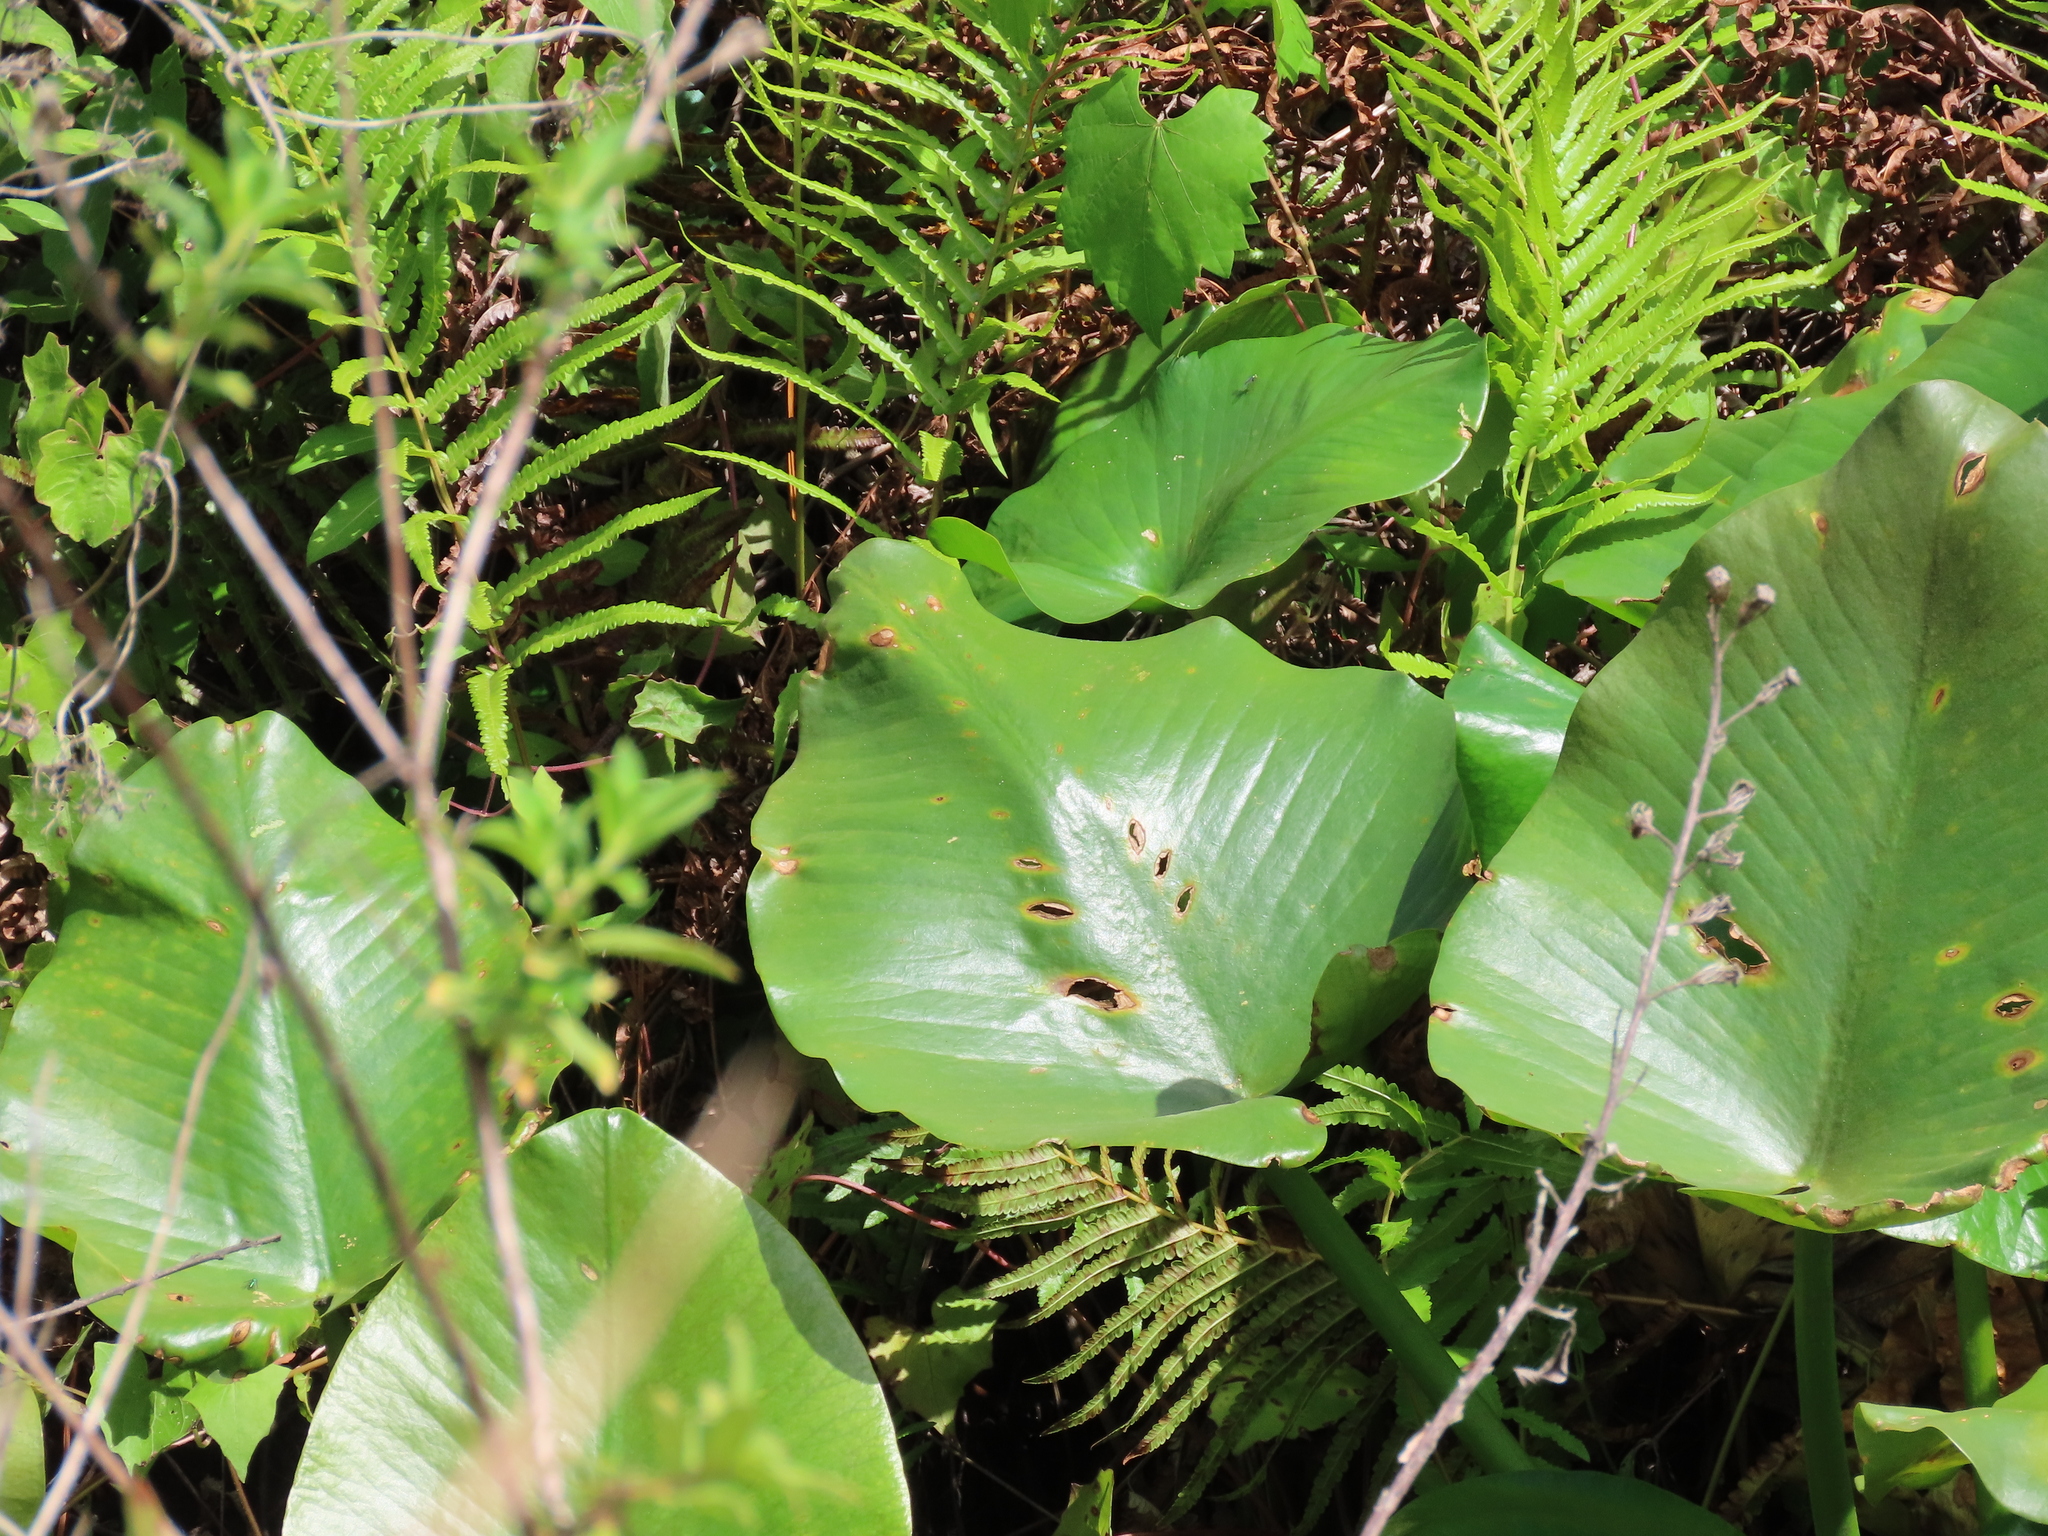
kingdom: Plantae
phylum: Tracheophyta
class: Magnoliopsida
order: Nymphaeales
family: Nymphaeaceae
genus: Nuphar
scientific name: Nuphar advena
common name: Spatter-dock
